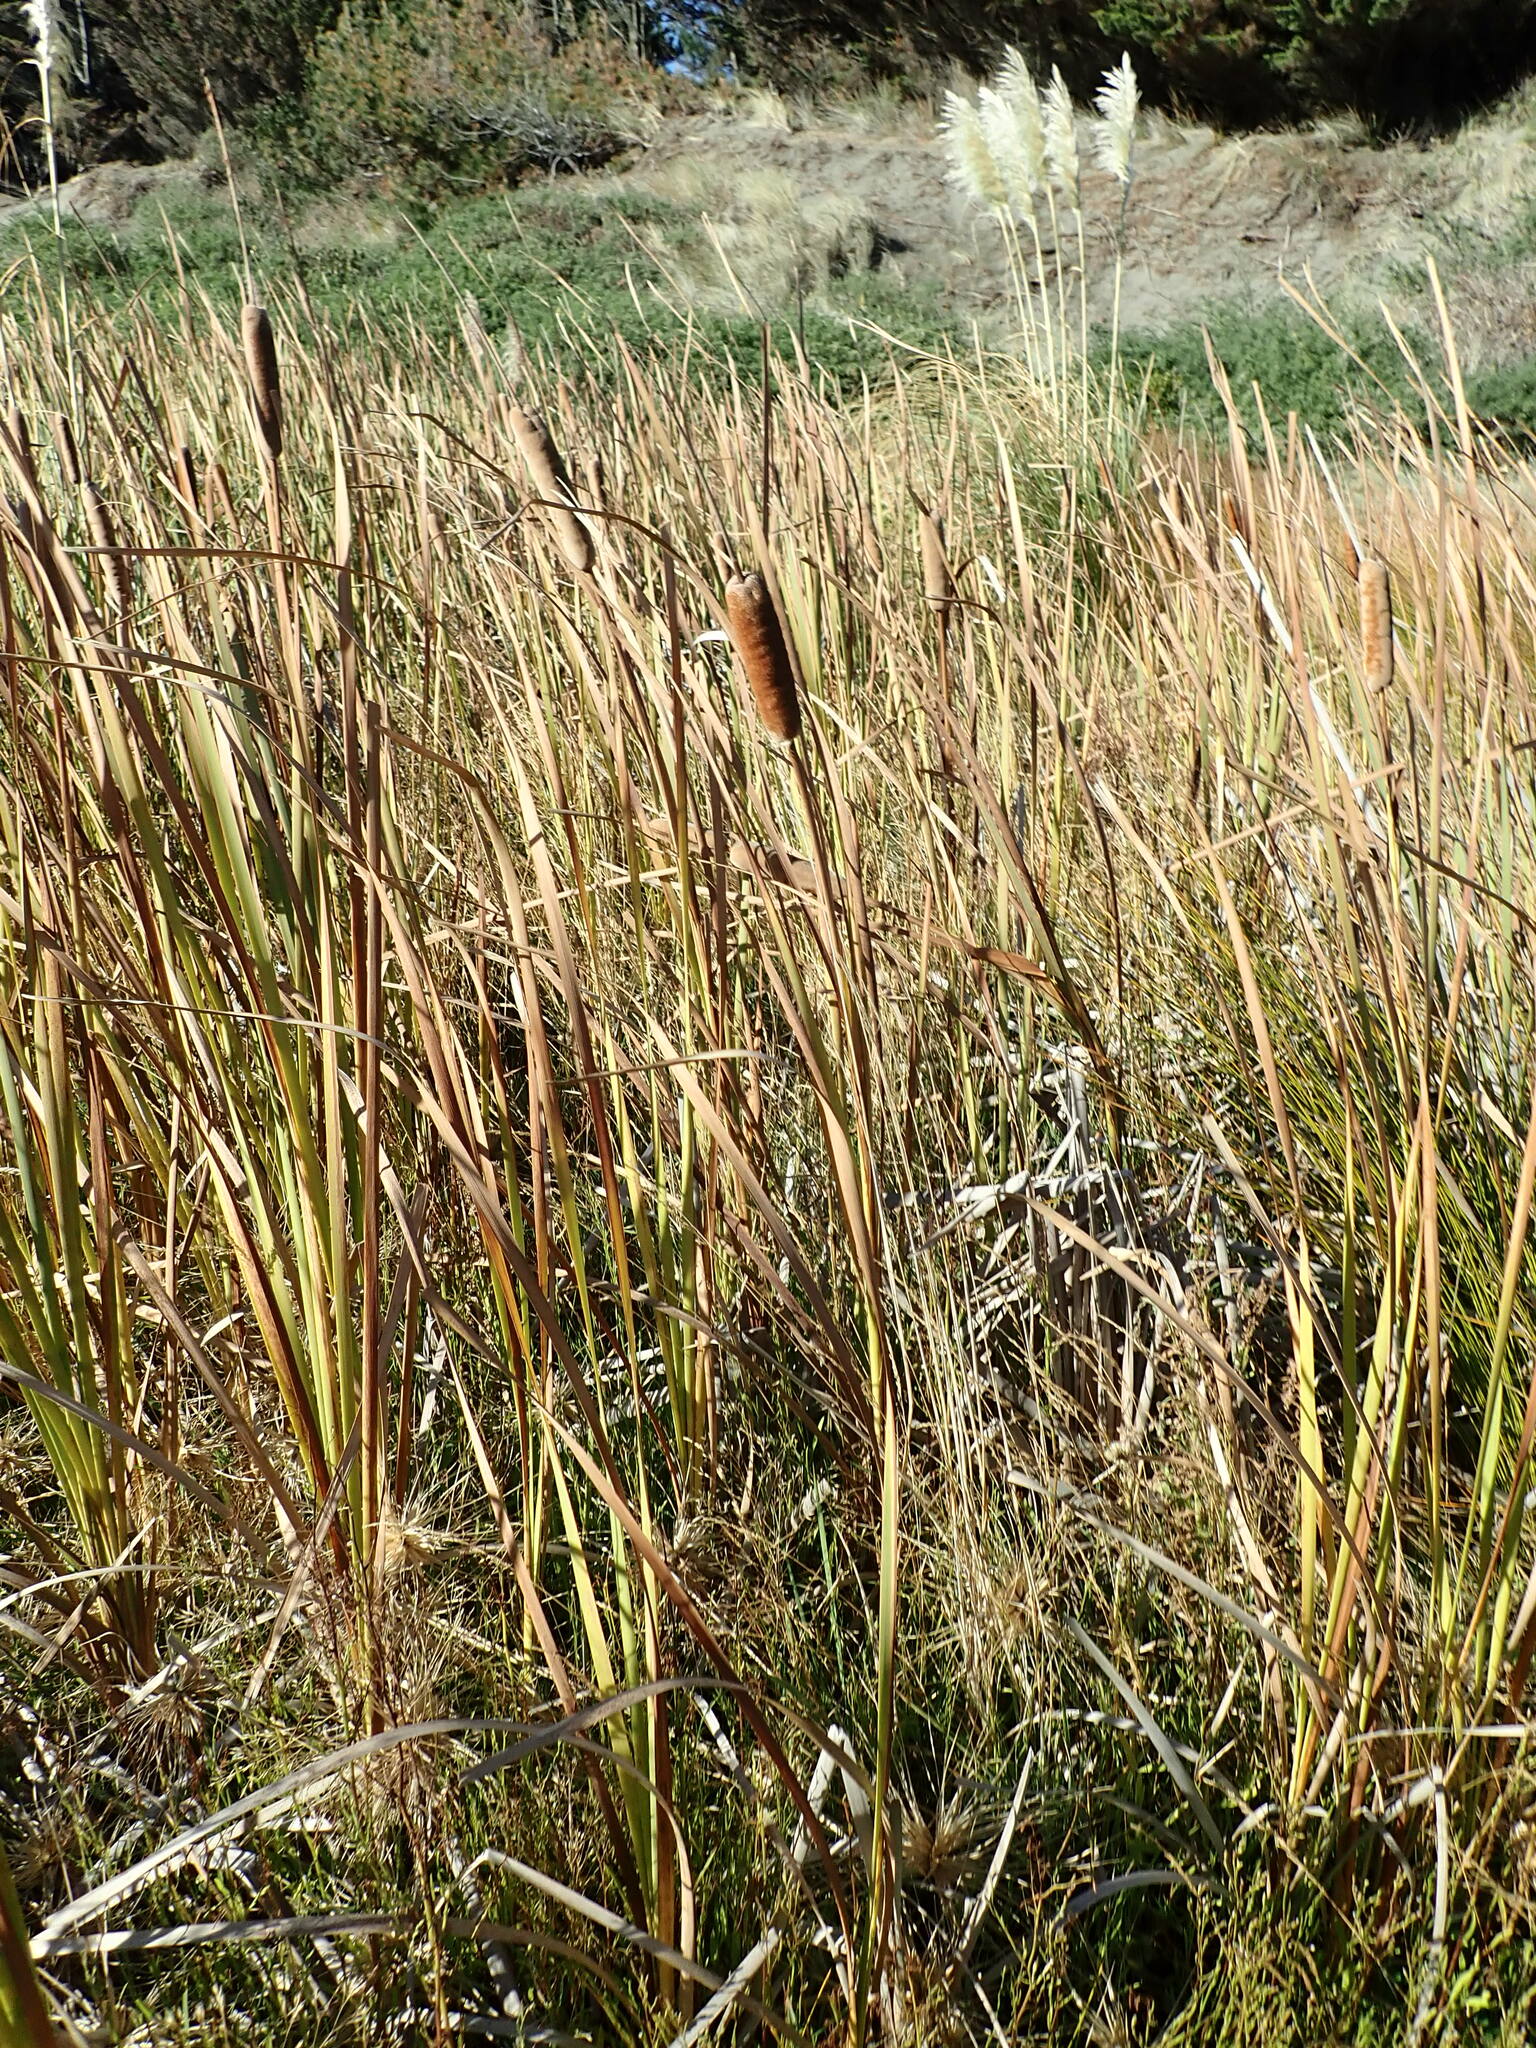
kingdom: Plantae
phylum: Tracheophyta
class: Liliopsida
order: Poales
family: Typhaceae
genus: Typha
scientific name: Typha orientalis
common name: Bullrush
